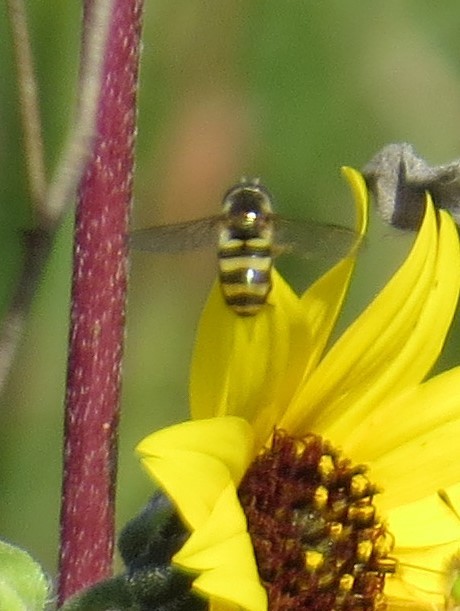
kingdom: Animalia
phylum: Arthropoda
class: Insecta
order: Diptera
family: Syrphidae
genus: Eupeodes
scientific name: Eupeodes
